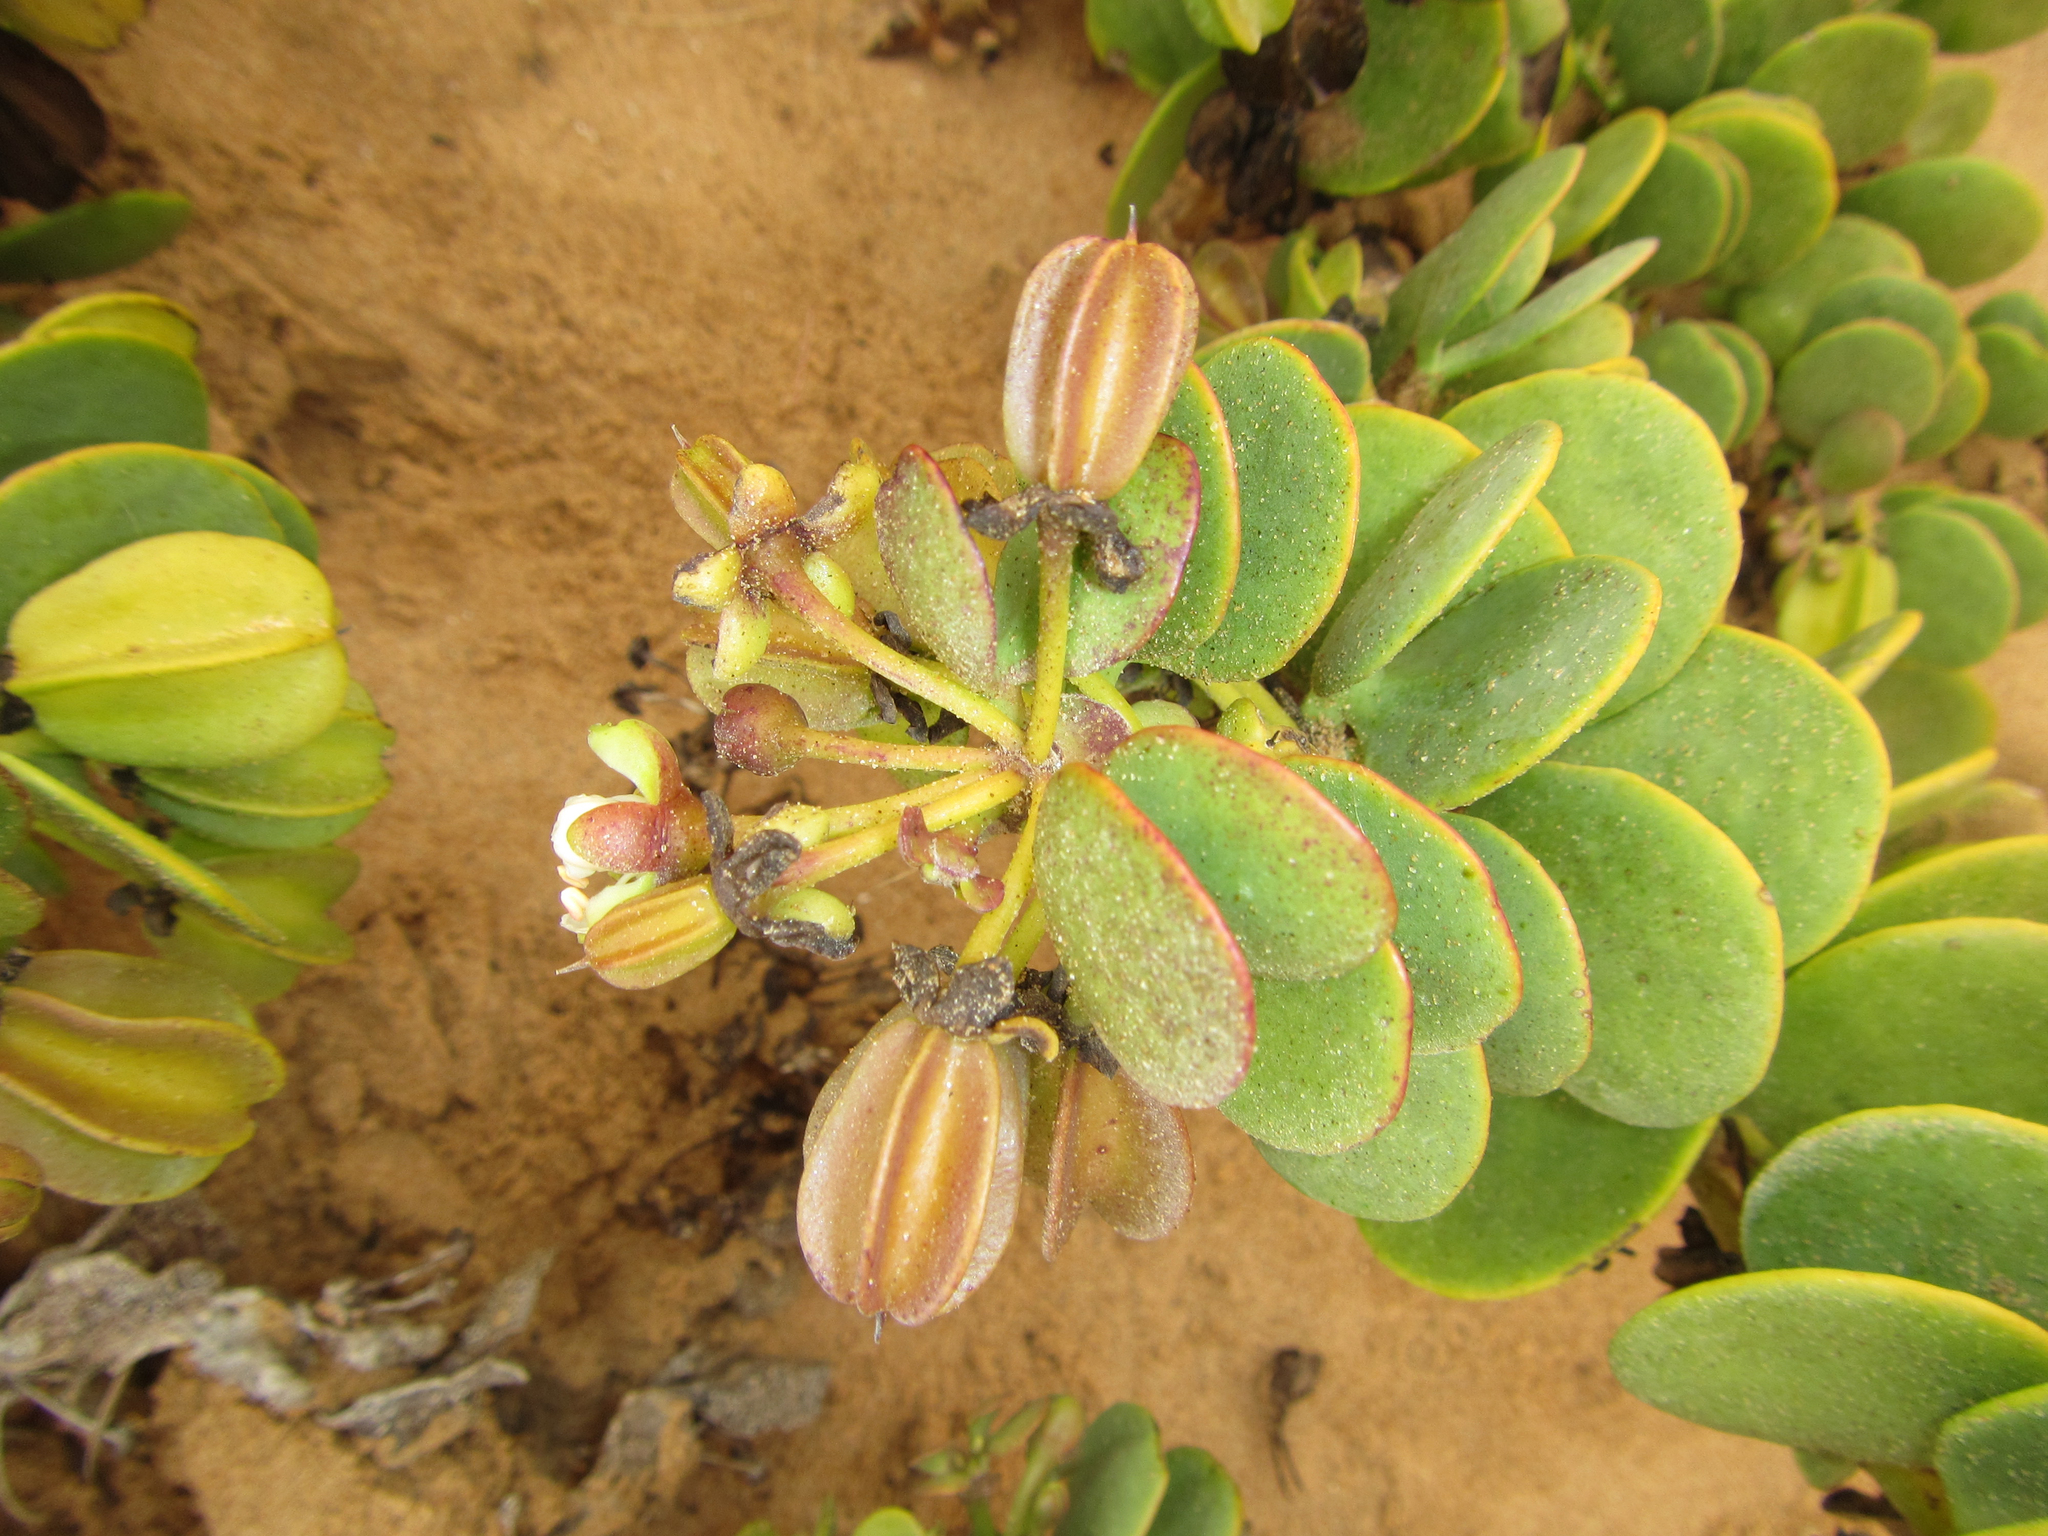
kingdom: Plantae
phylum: Tracheophyta
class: Magnoliopsida
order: Zygophyllales
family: Zygophyllaceae
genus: Tetraena
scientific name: Tetraena stapfii
